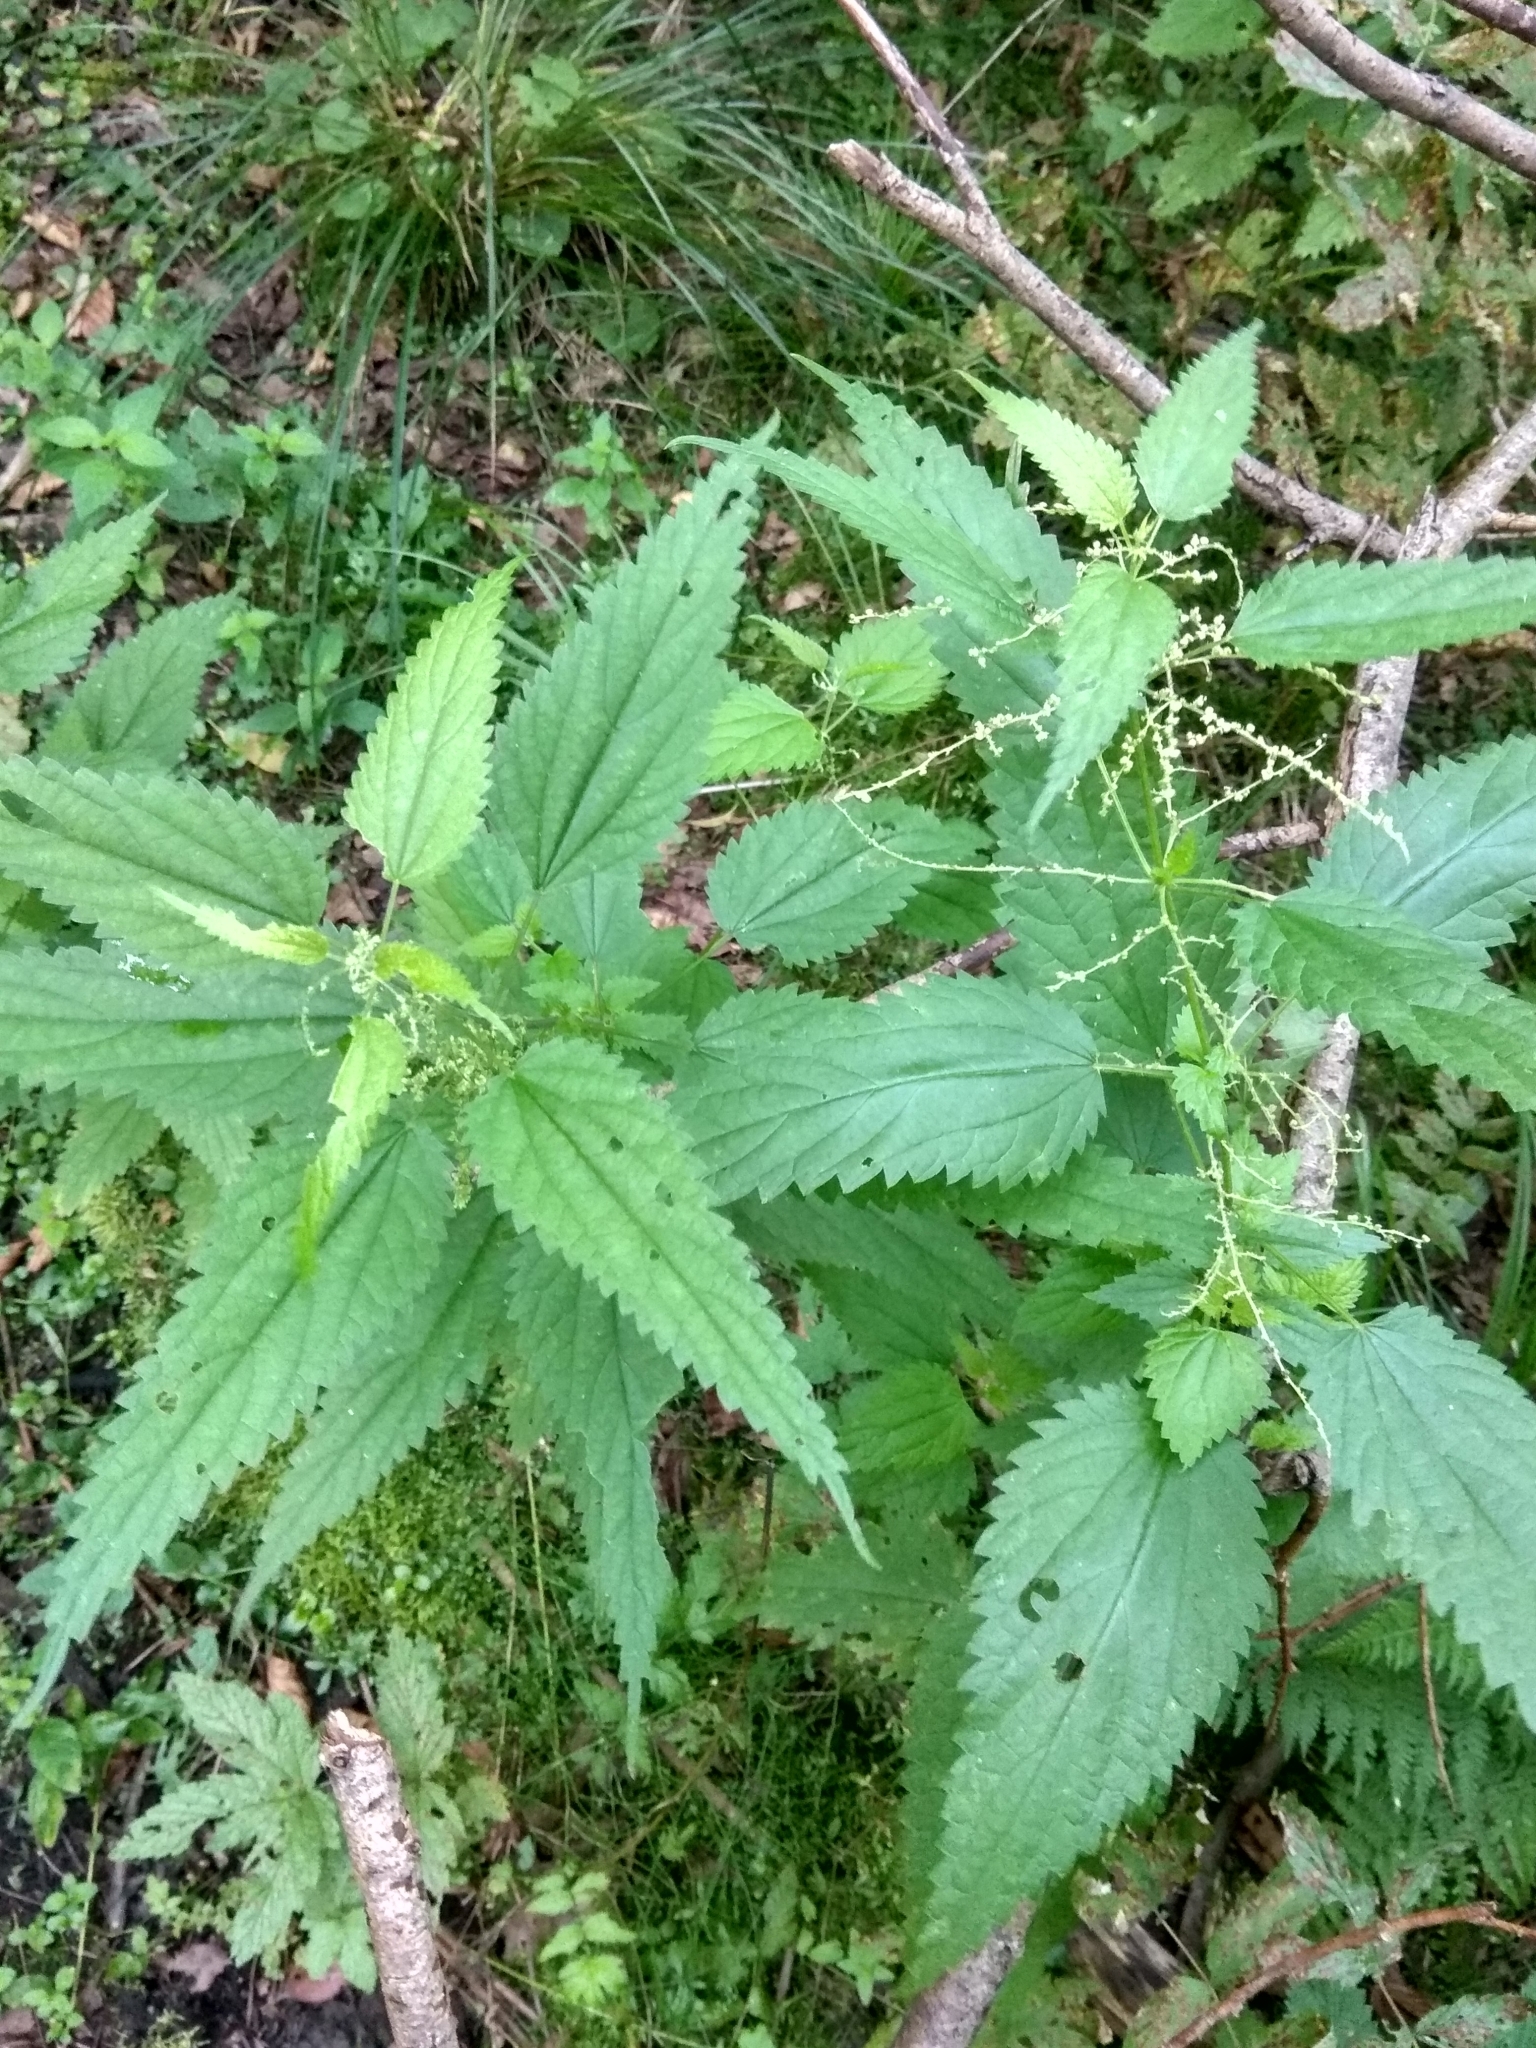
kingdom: Plantae
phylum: Tracheophyta
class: Magnoliopsida
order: Rosales
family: Urticaceae
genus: Urtica
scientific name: Urtica dioica
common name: Common nettle
